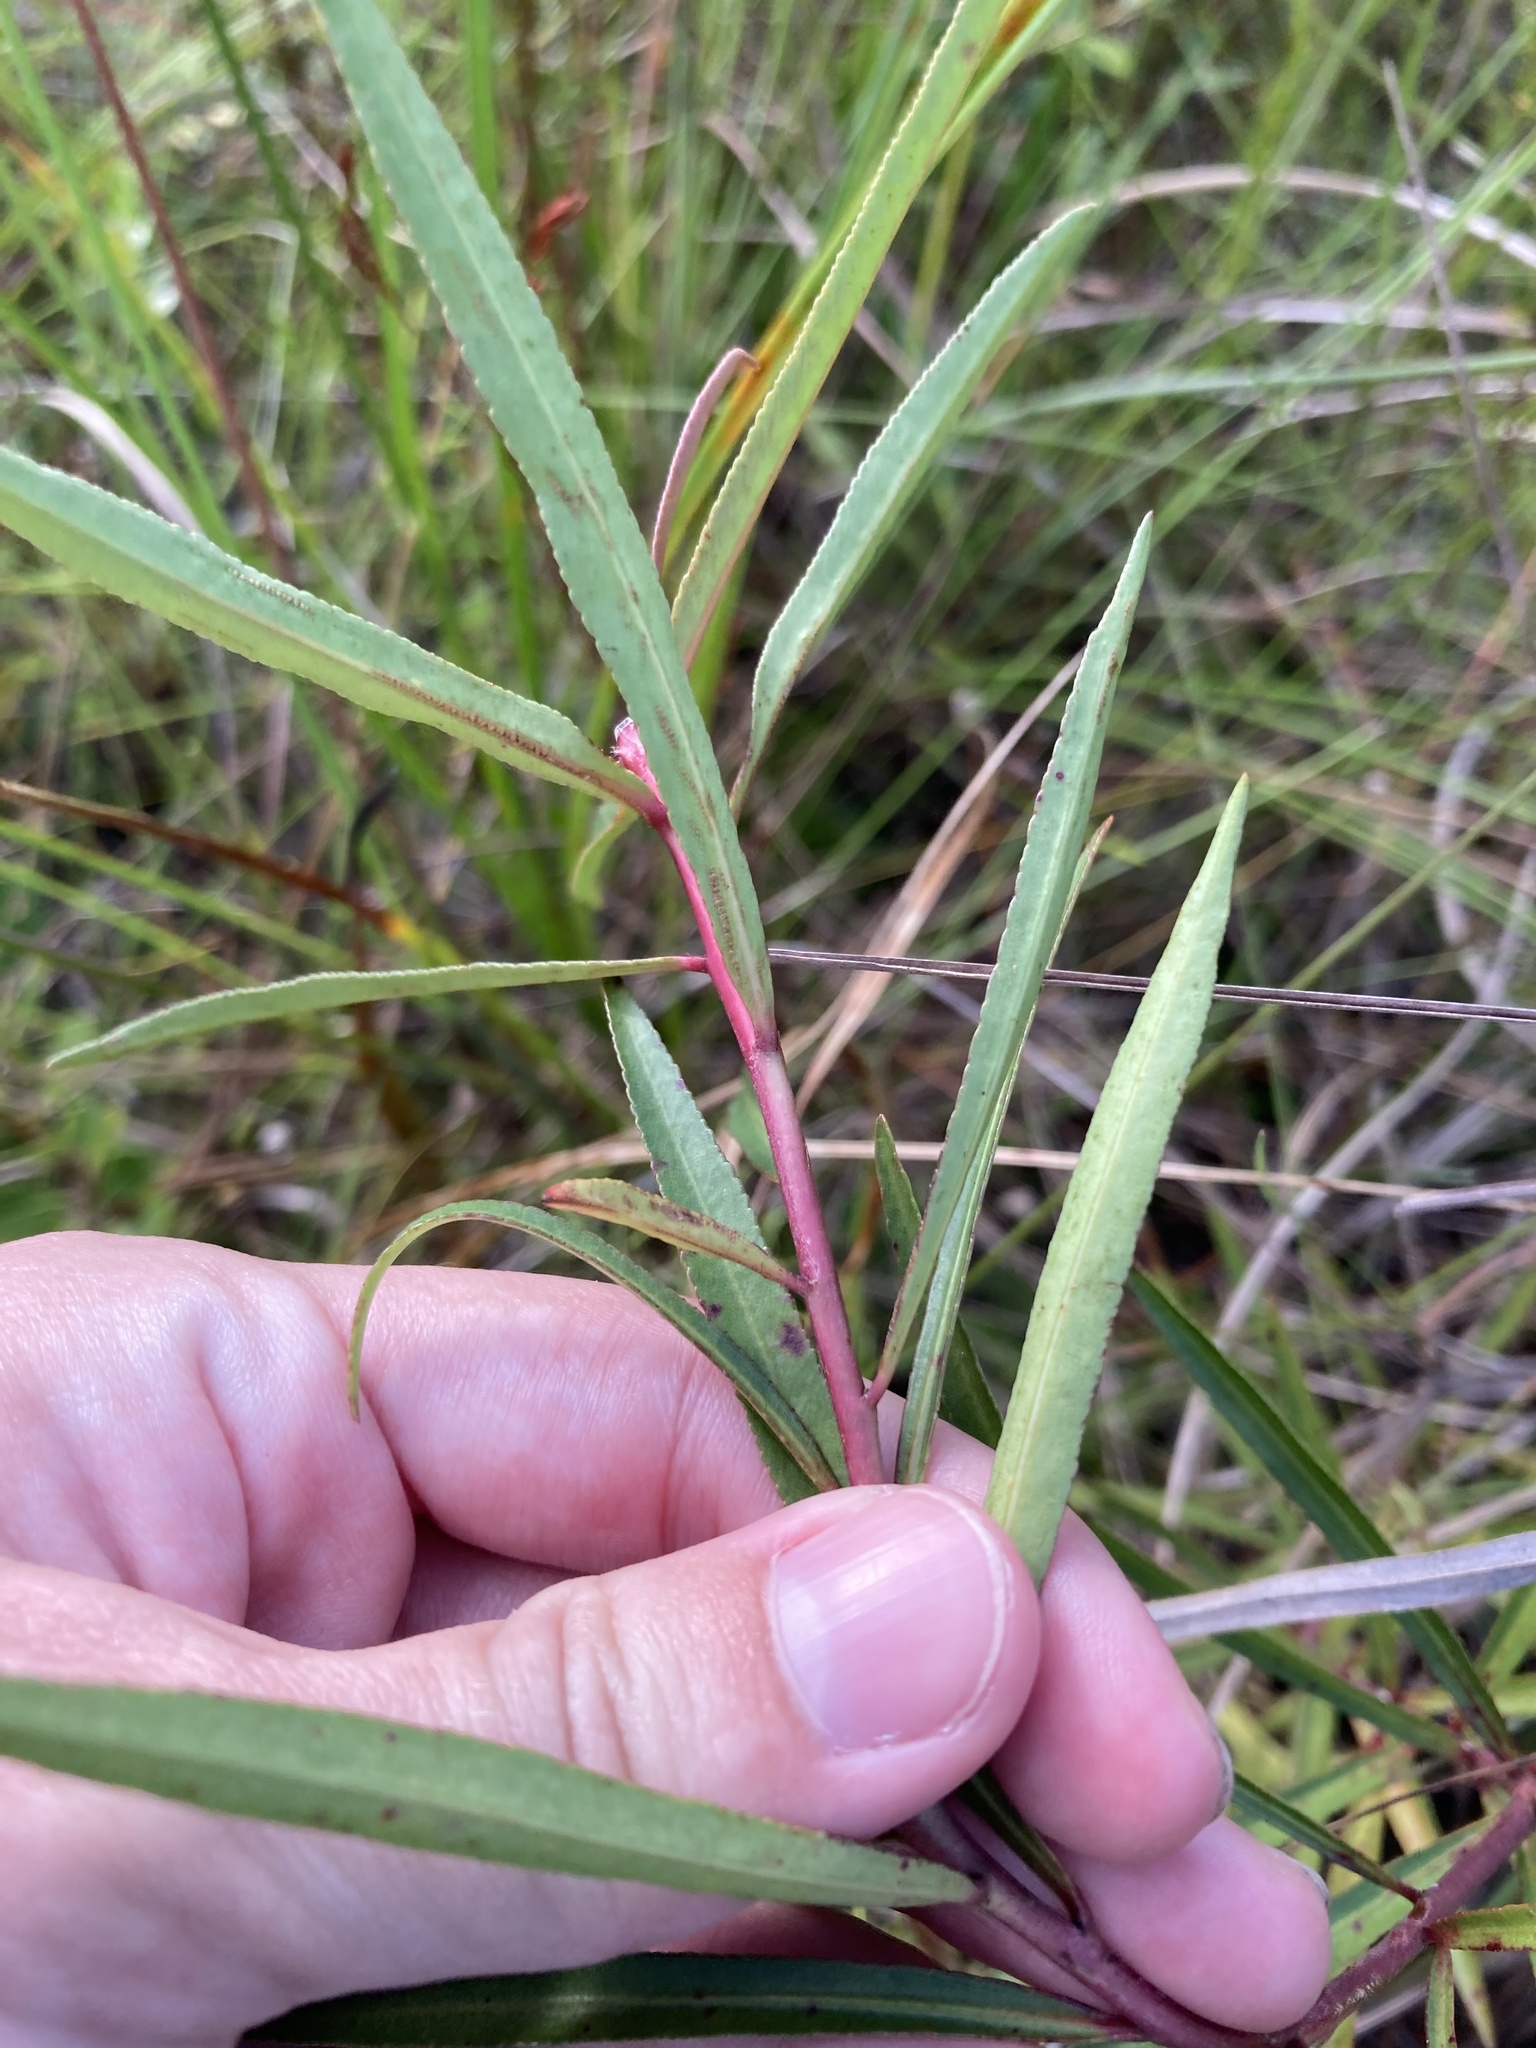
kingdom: Plantae
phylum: Tracheophyta
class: Magnoliopsida
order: Malpighiales
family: Euphorbiaceae
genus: Stillingia
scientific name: Stillingia sylvatica
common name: Queen's-delight
